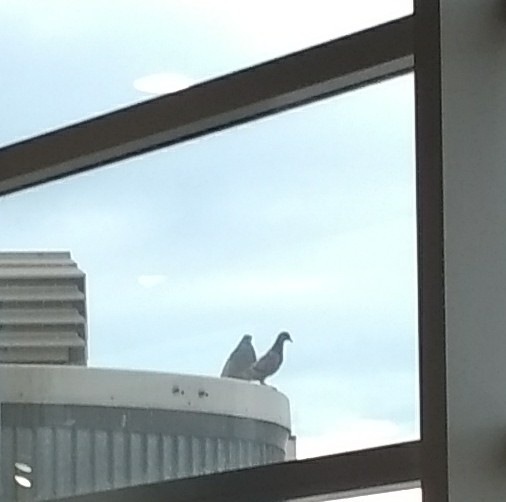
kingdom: Animalia
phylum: Chordata
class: Aves
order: Columbiformes
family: Columbidae
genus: Columba
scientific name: Columba livia
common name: Rock pigeon
